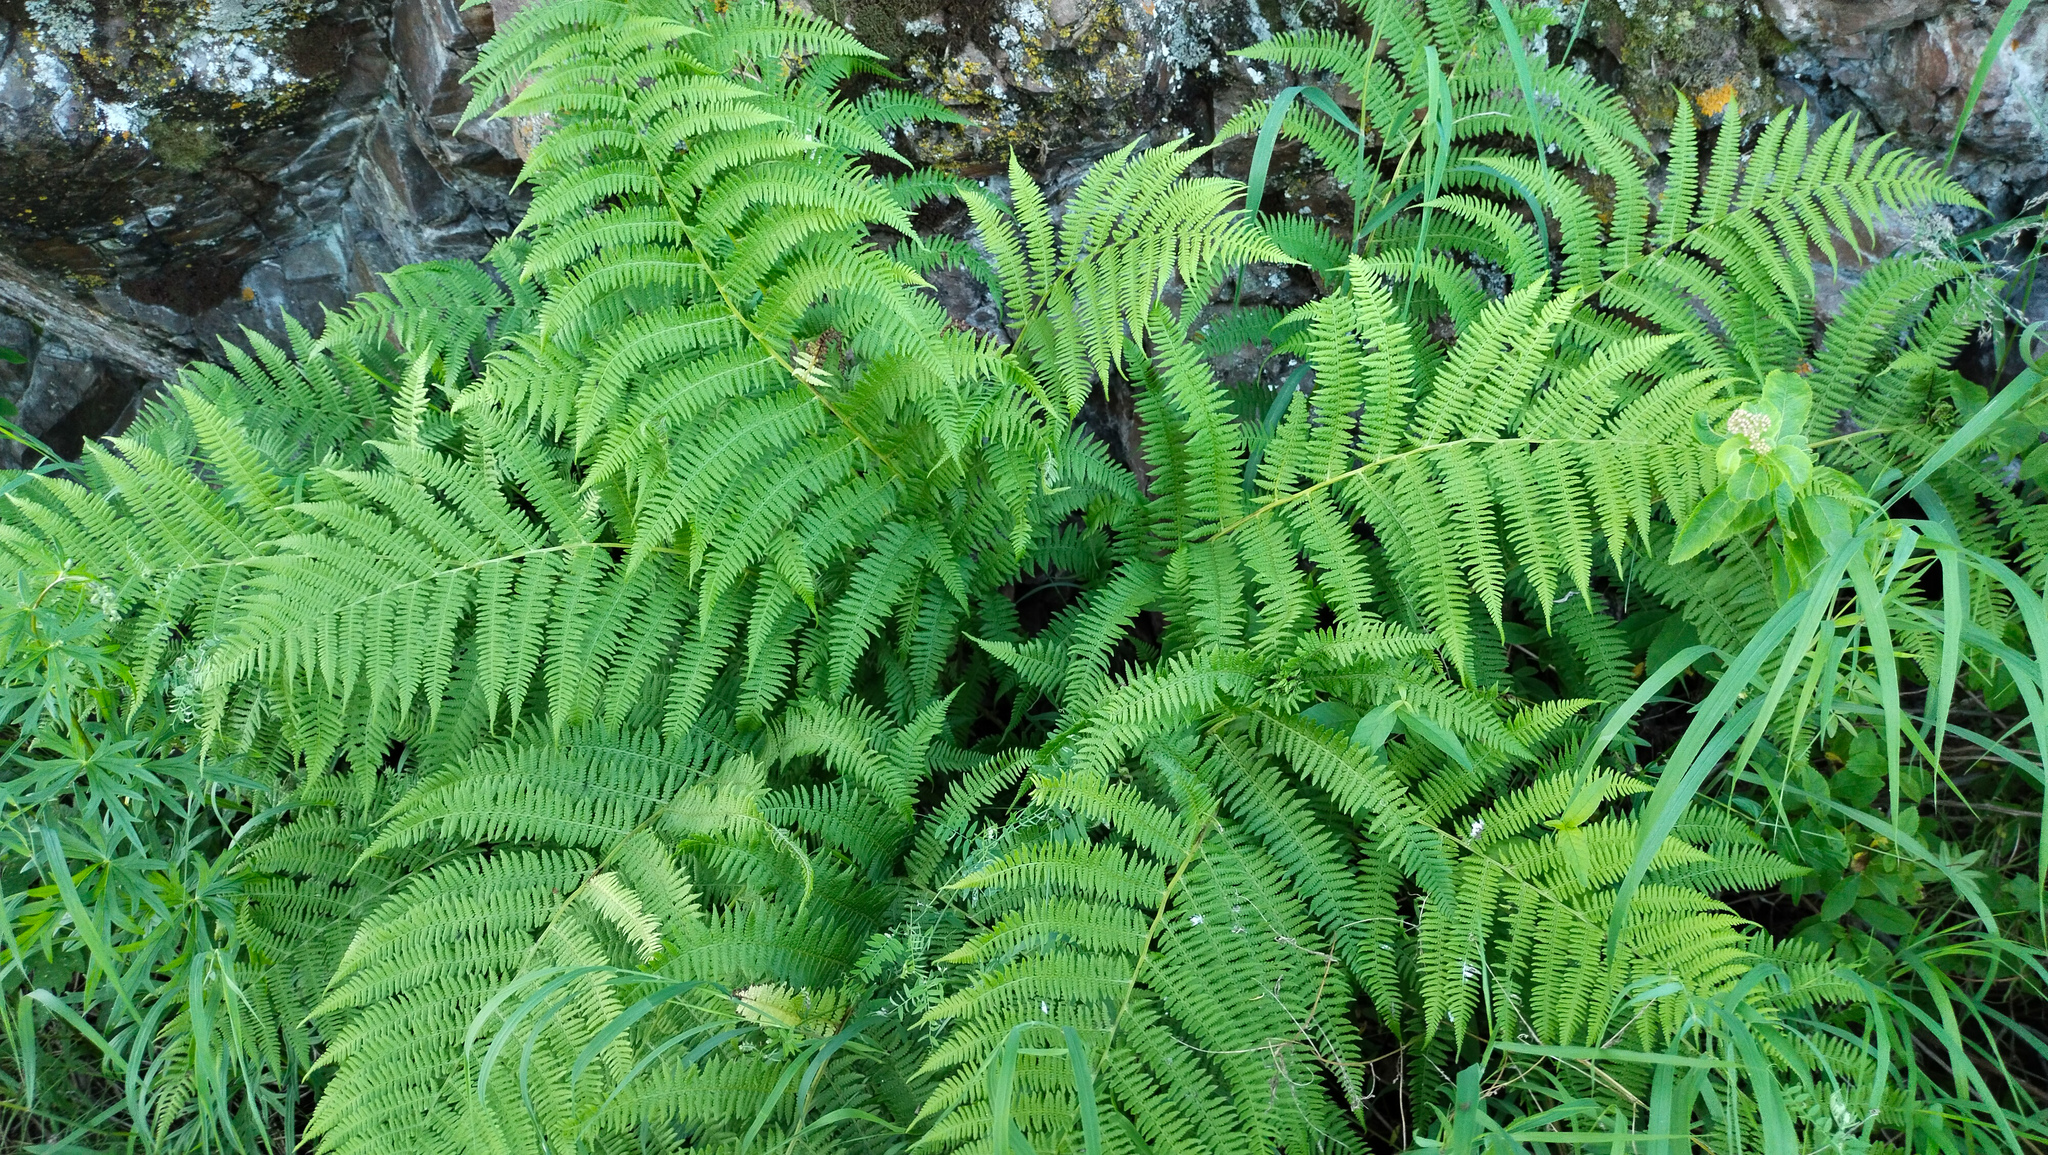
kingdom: Plantae
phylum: Tracheophyta
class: Polypodiopsida
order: Polypodiales
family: Athyriaceae
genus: Athyrium
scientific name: Athyrium filix-femina
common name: Lady fern
